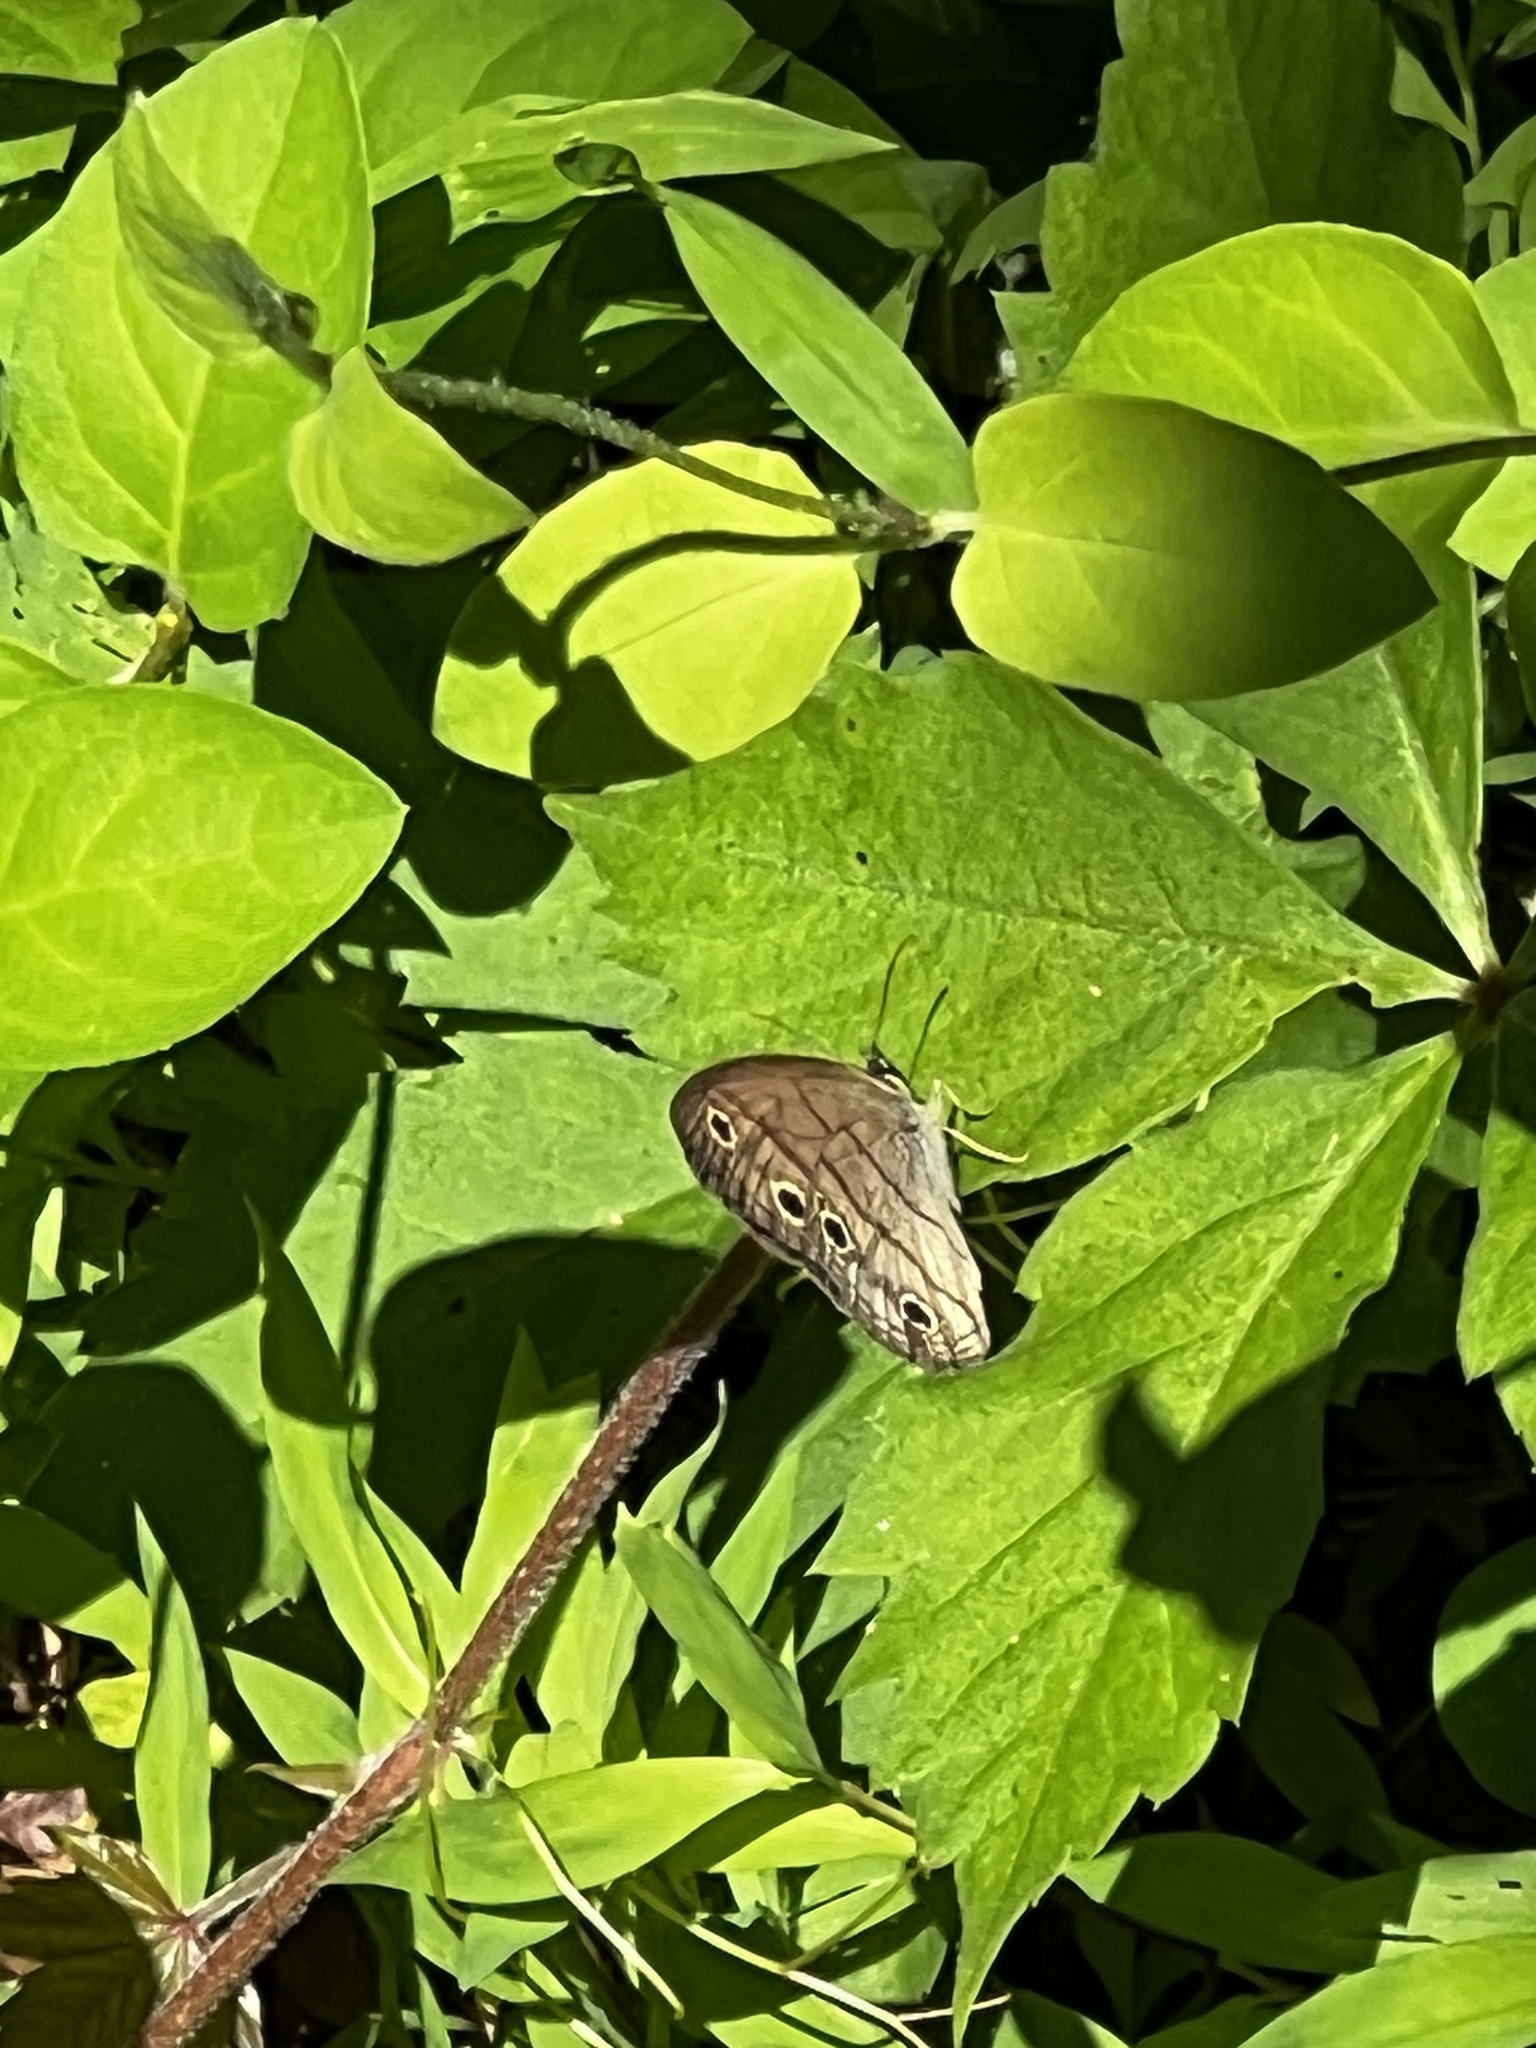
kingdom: Animalia
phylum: Arthropoda
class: Insecta
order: Lepidoptera
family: Nymphalidae
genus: Euptychia
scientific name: Euptychia cymela
